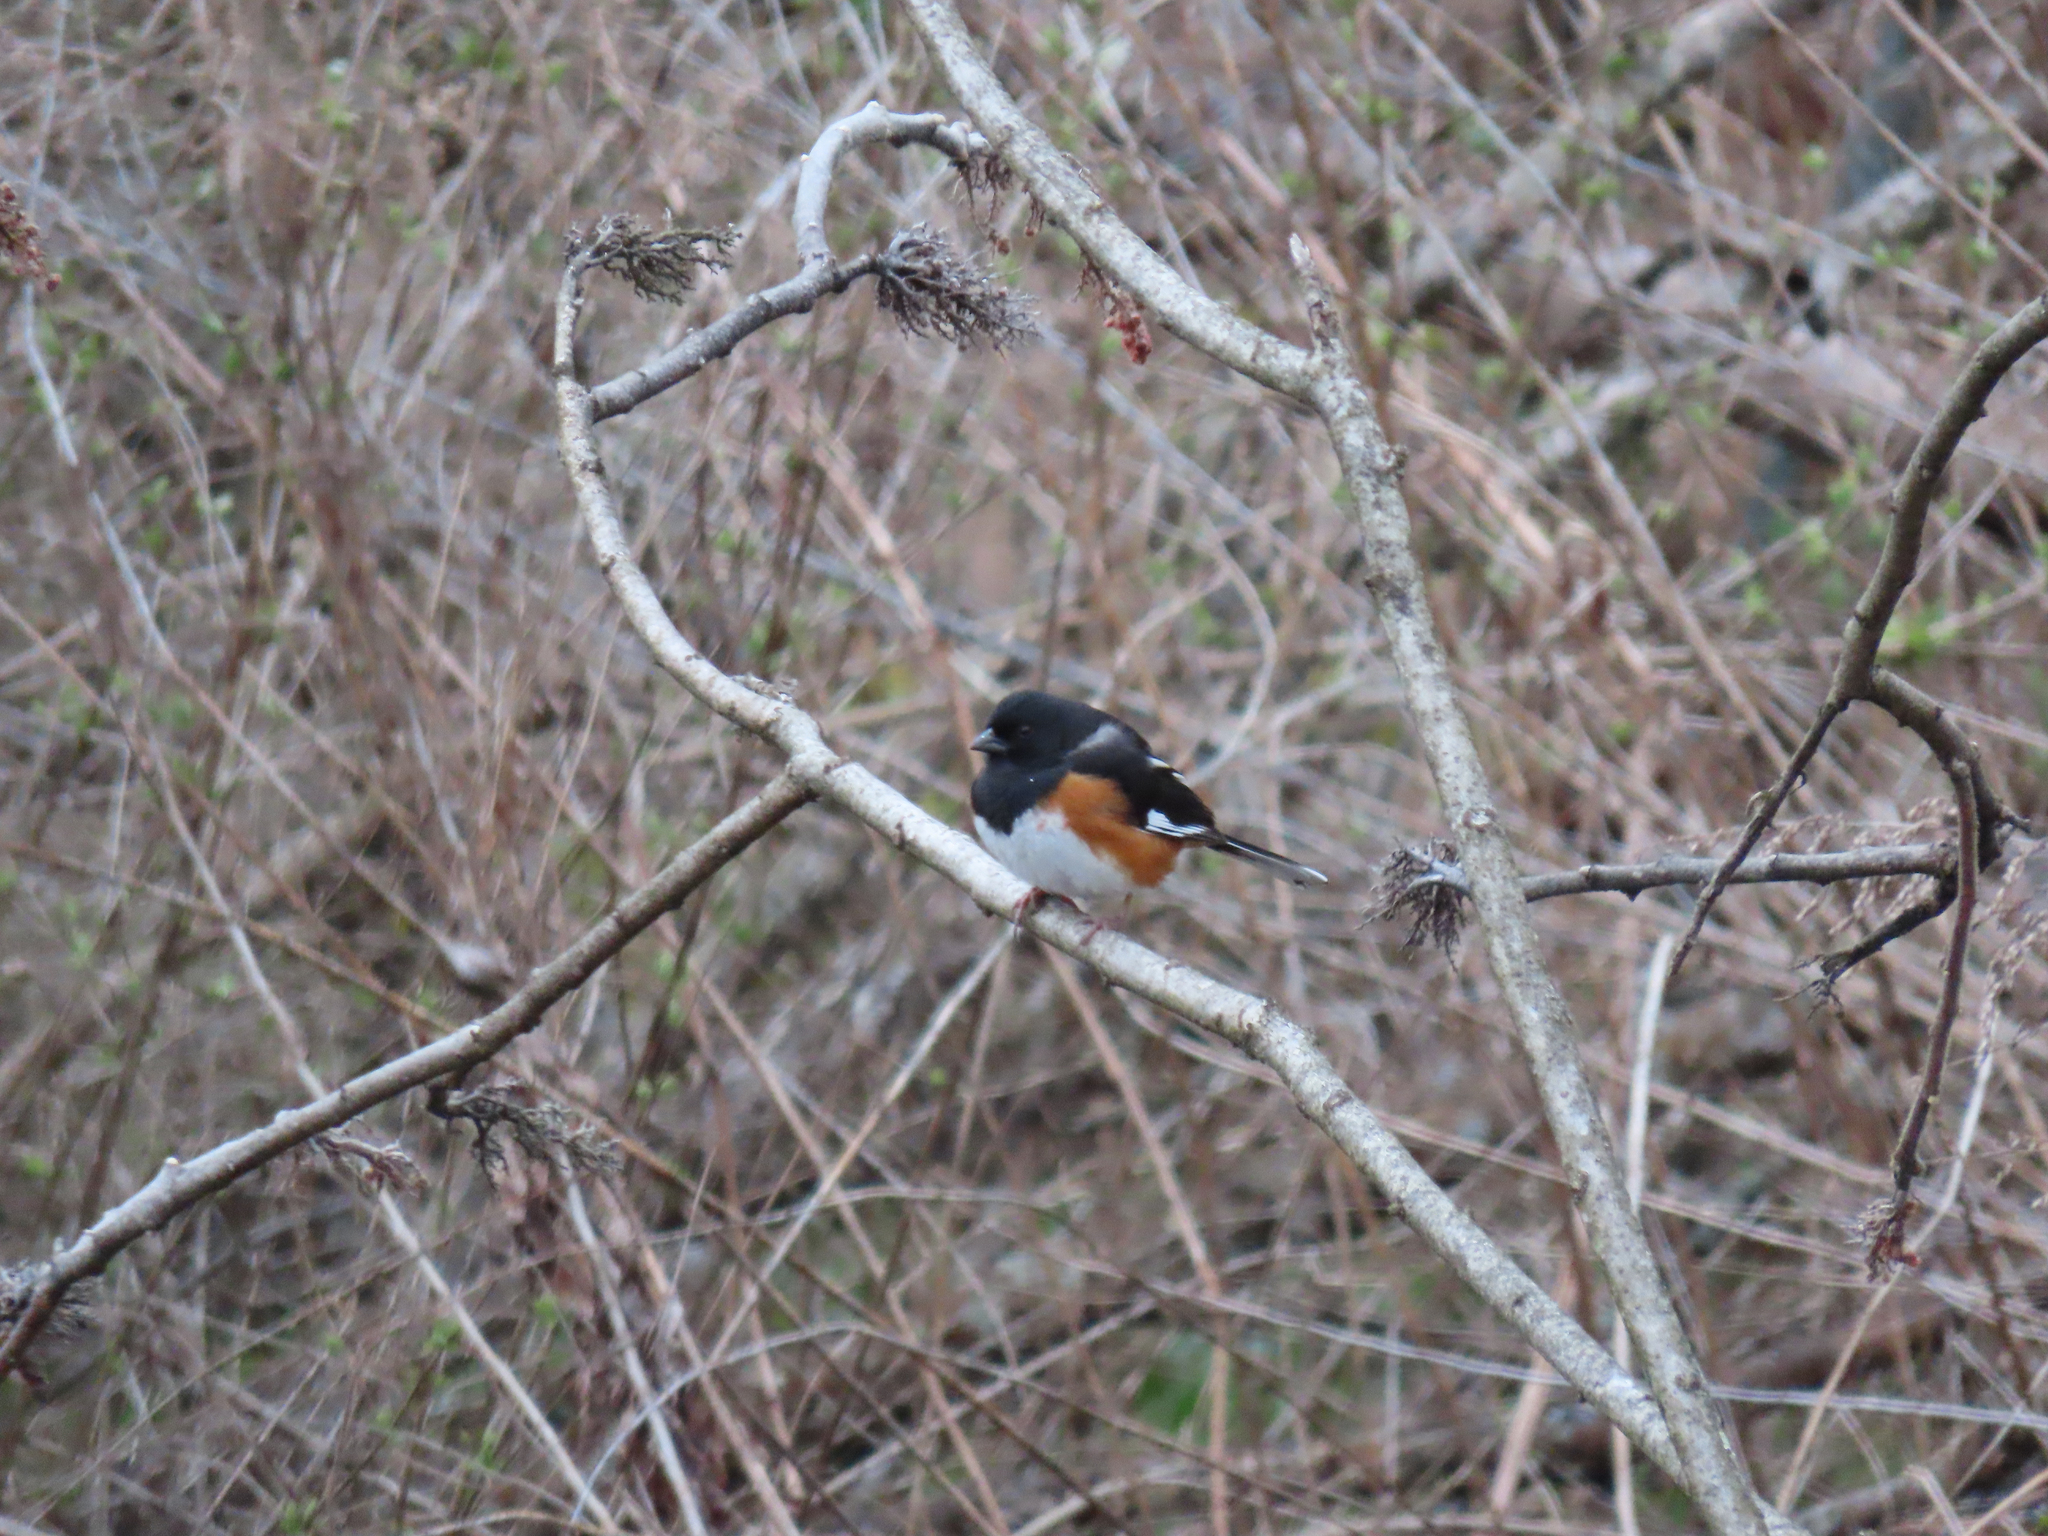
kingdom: Animalia
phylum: Chordata
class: Aves
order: Passeriformes
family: Passerellidae
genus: Pipilo
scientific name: Pipilo erythrophthalmus
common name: Eastern towhee
